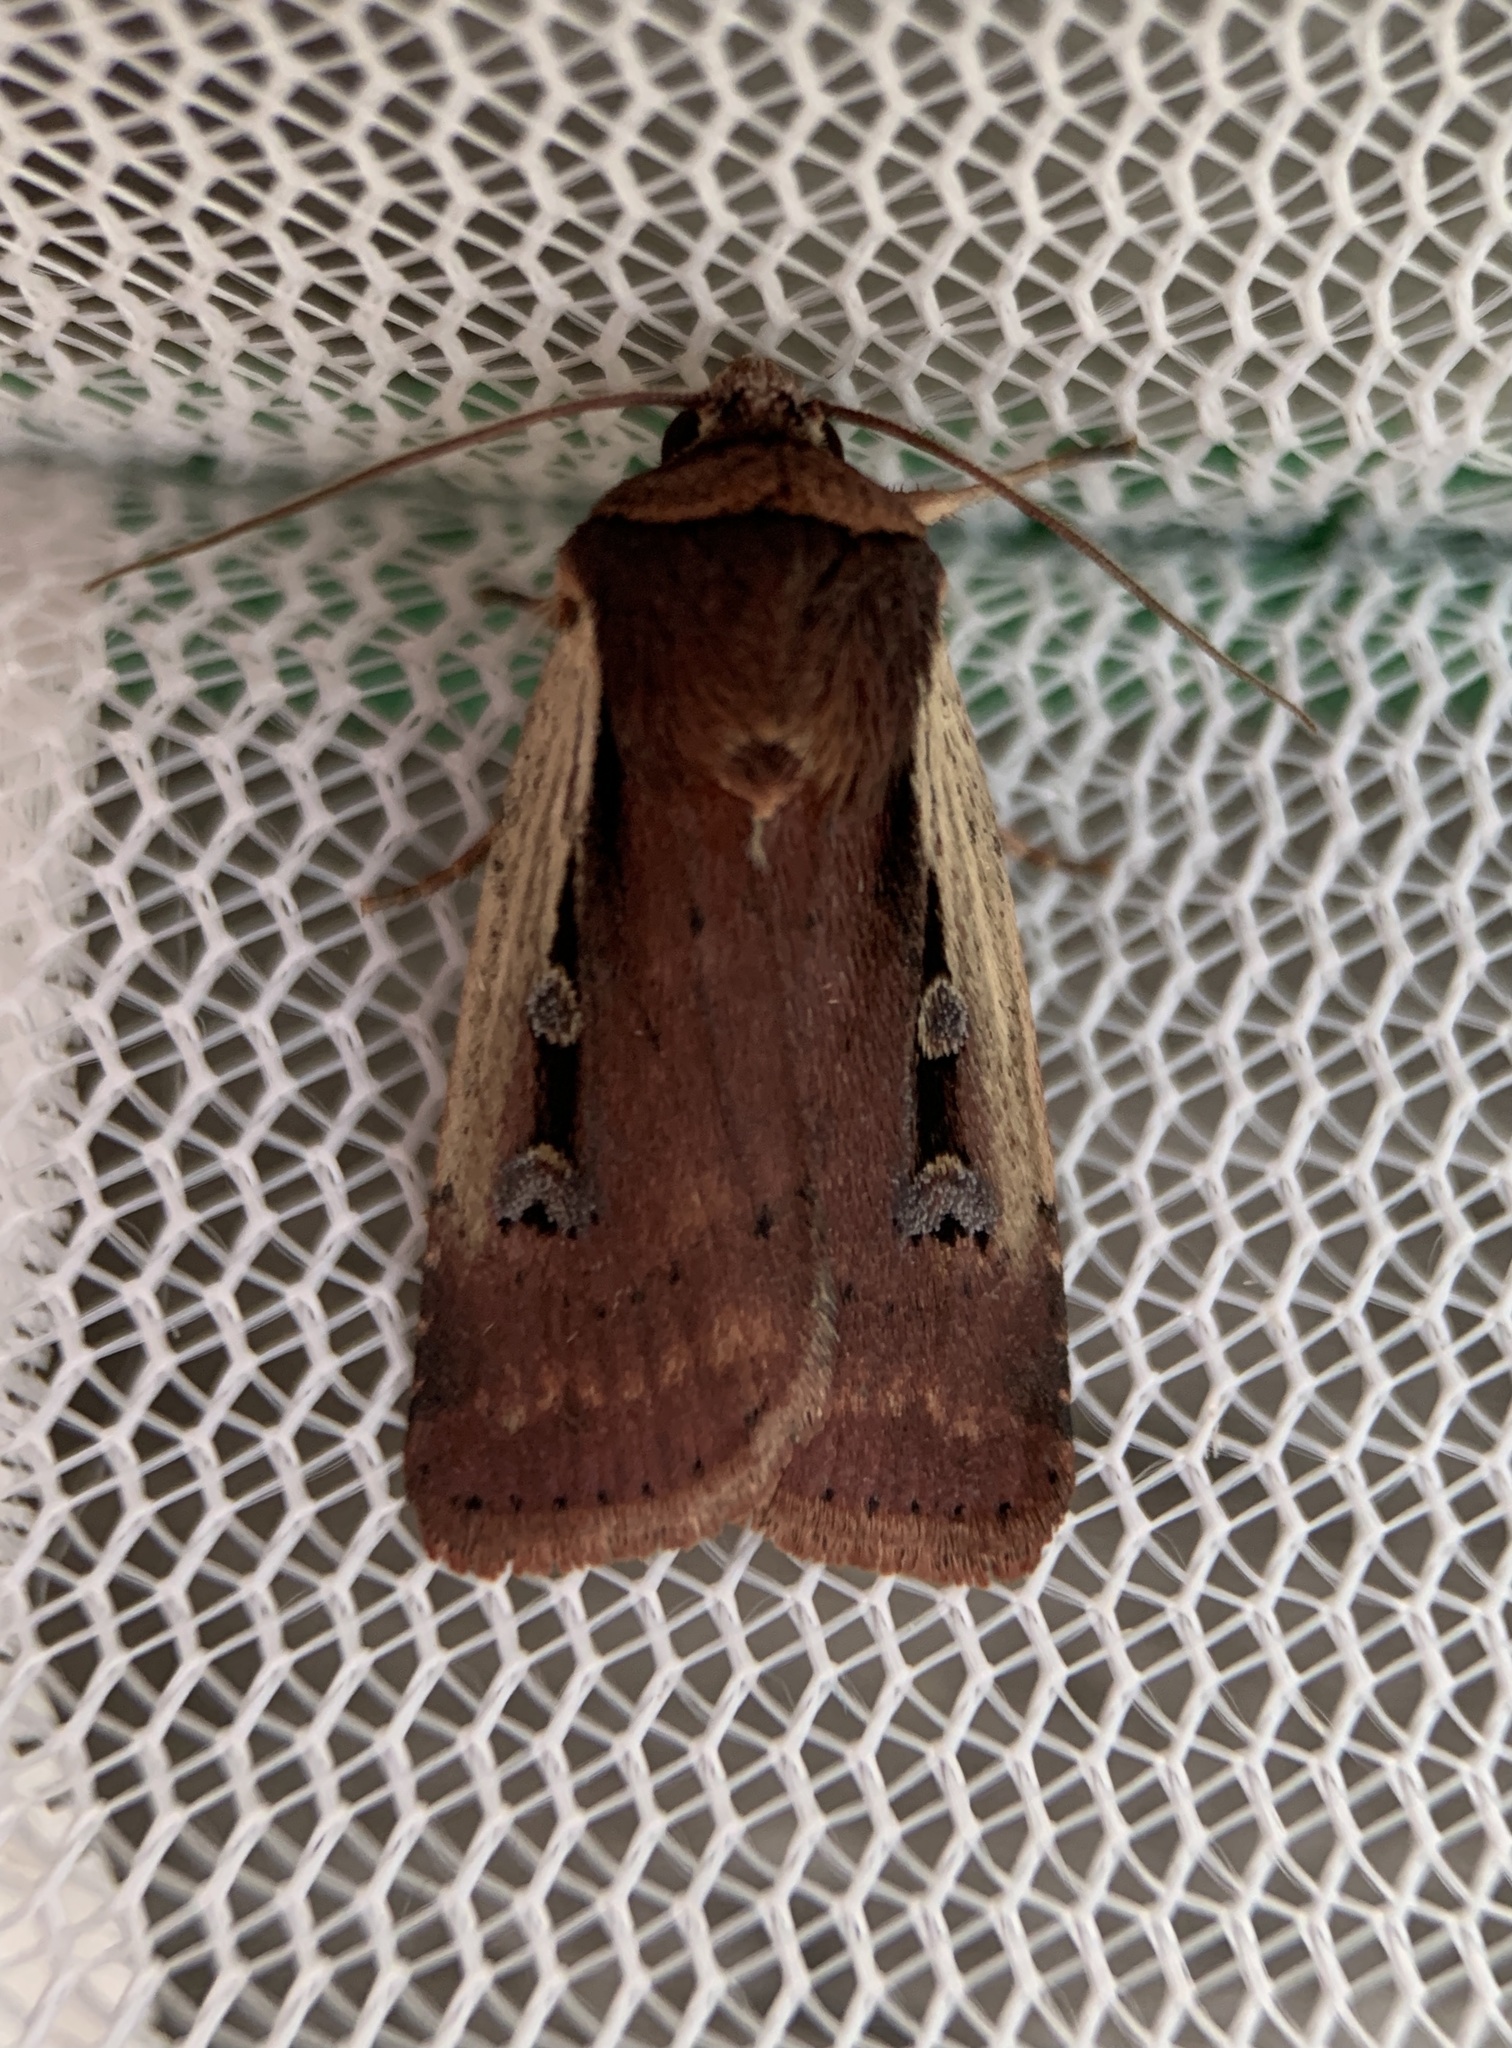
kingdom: Animalia
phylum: Arthropoda
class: Insecta
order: Lepidoptera
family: Noctuidae
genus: Ochropleura
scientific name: Ochropleura implecta
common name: Flame-shouldered dart
